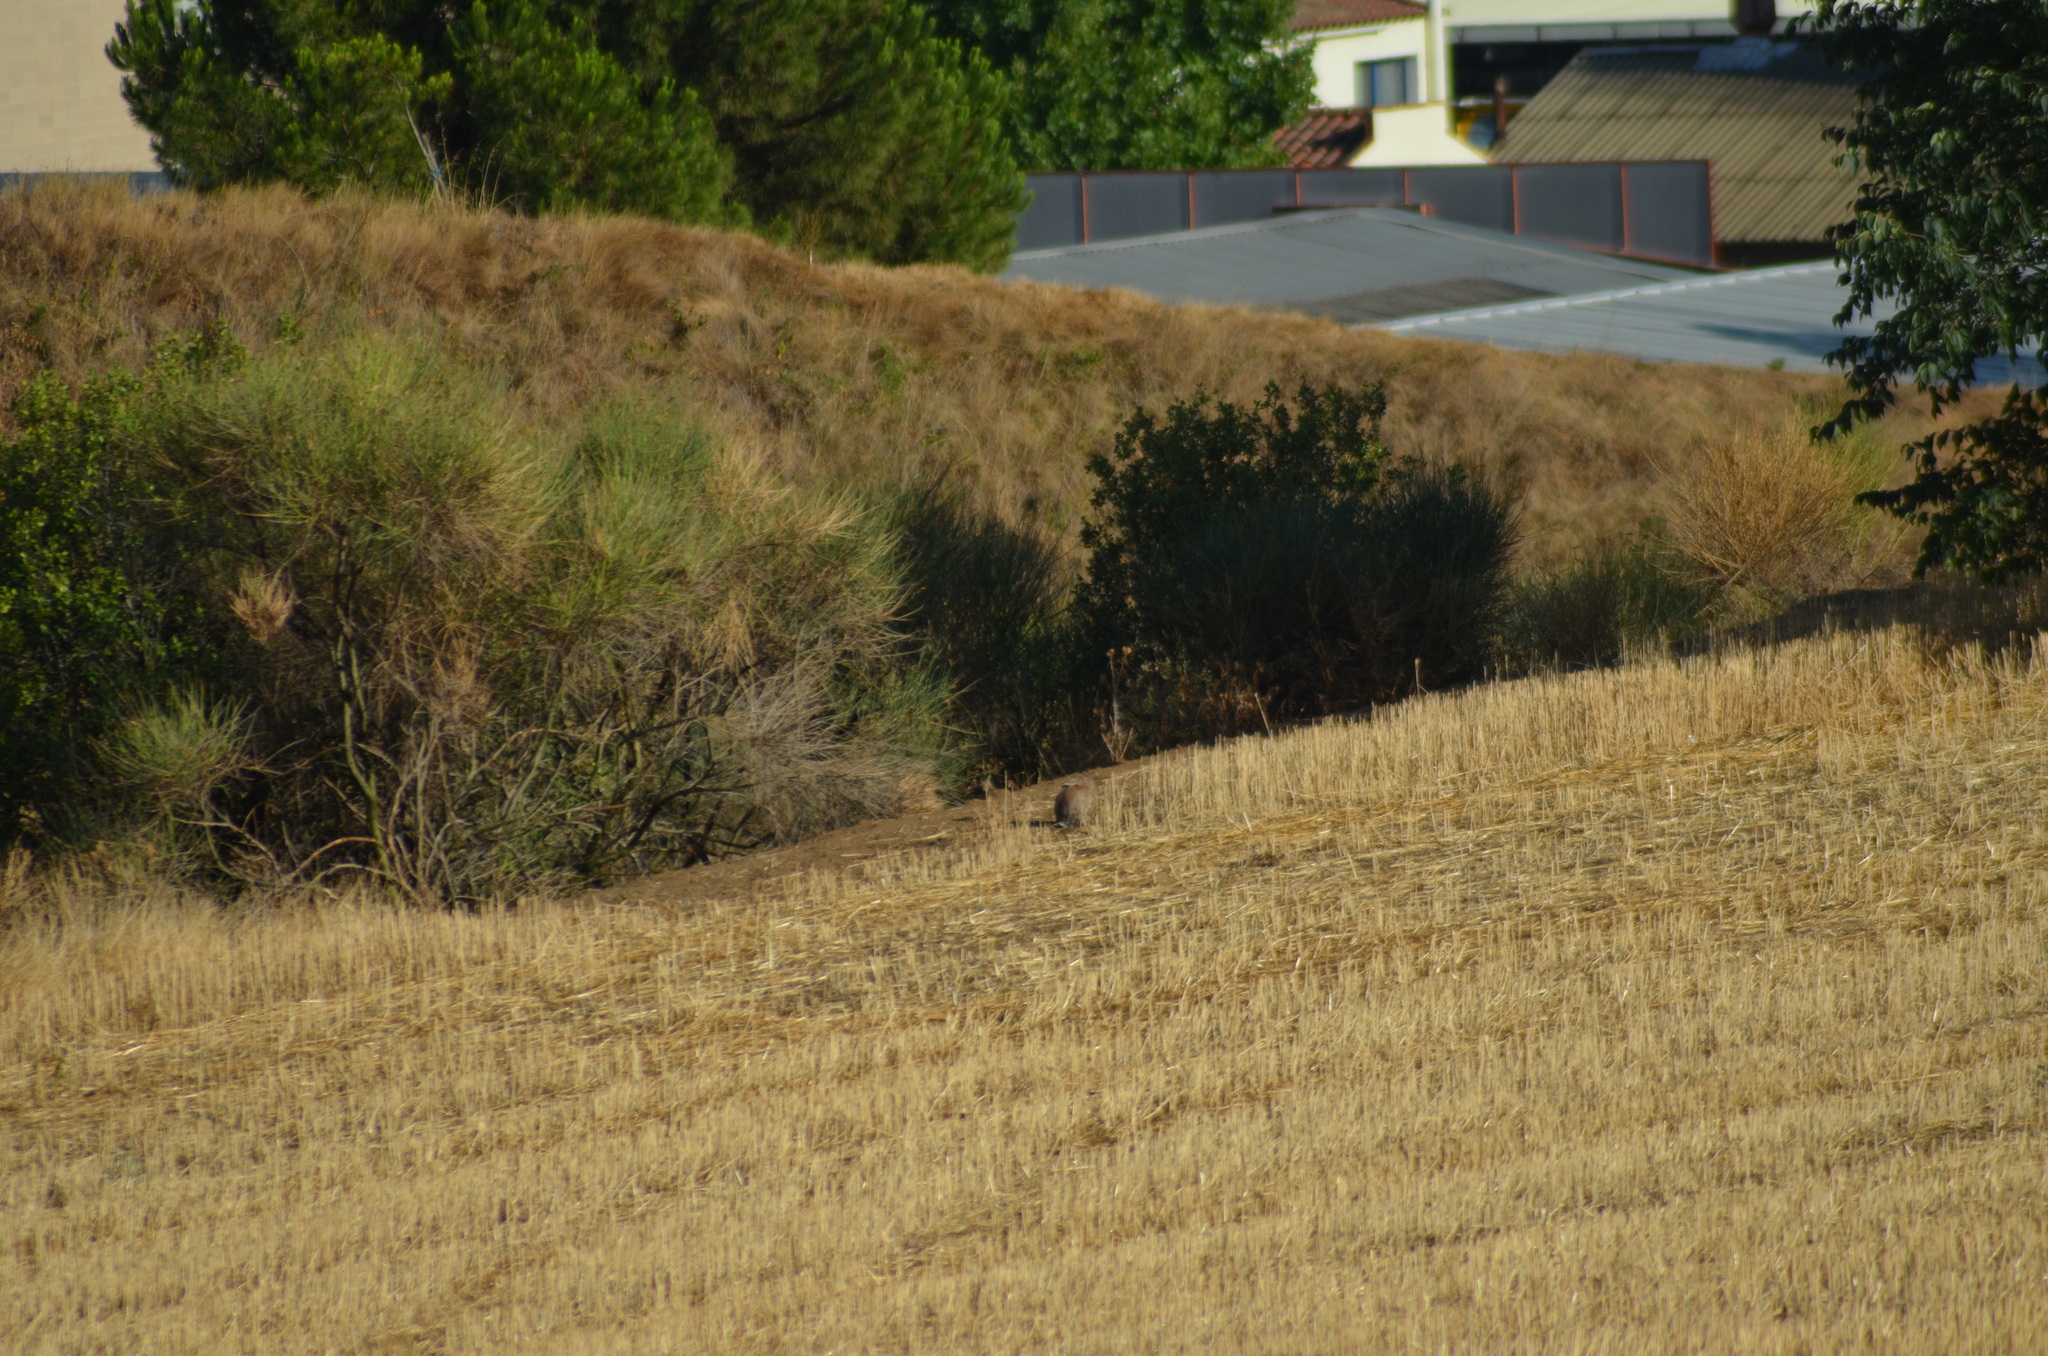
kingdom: Animalia
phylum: Chordata
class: Mammalia
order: Lagomorpha
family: Leporidae
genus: Oryctolagus
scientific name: Oryctolagus cuniculus
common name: European rabbit
